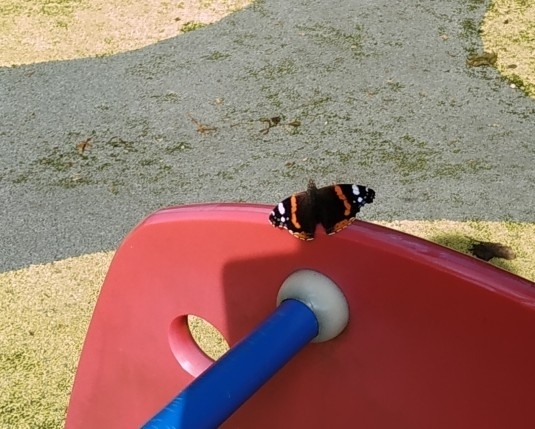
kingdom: Animalia
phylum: Arthropoda
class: Insecta
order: Lepidoptera
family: Nymphalidae
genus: Vanessa
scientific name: Vanessa atalanta
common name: Red admiral
